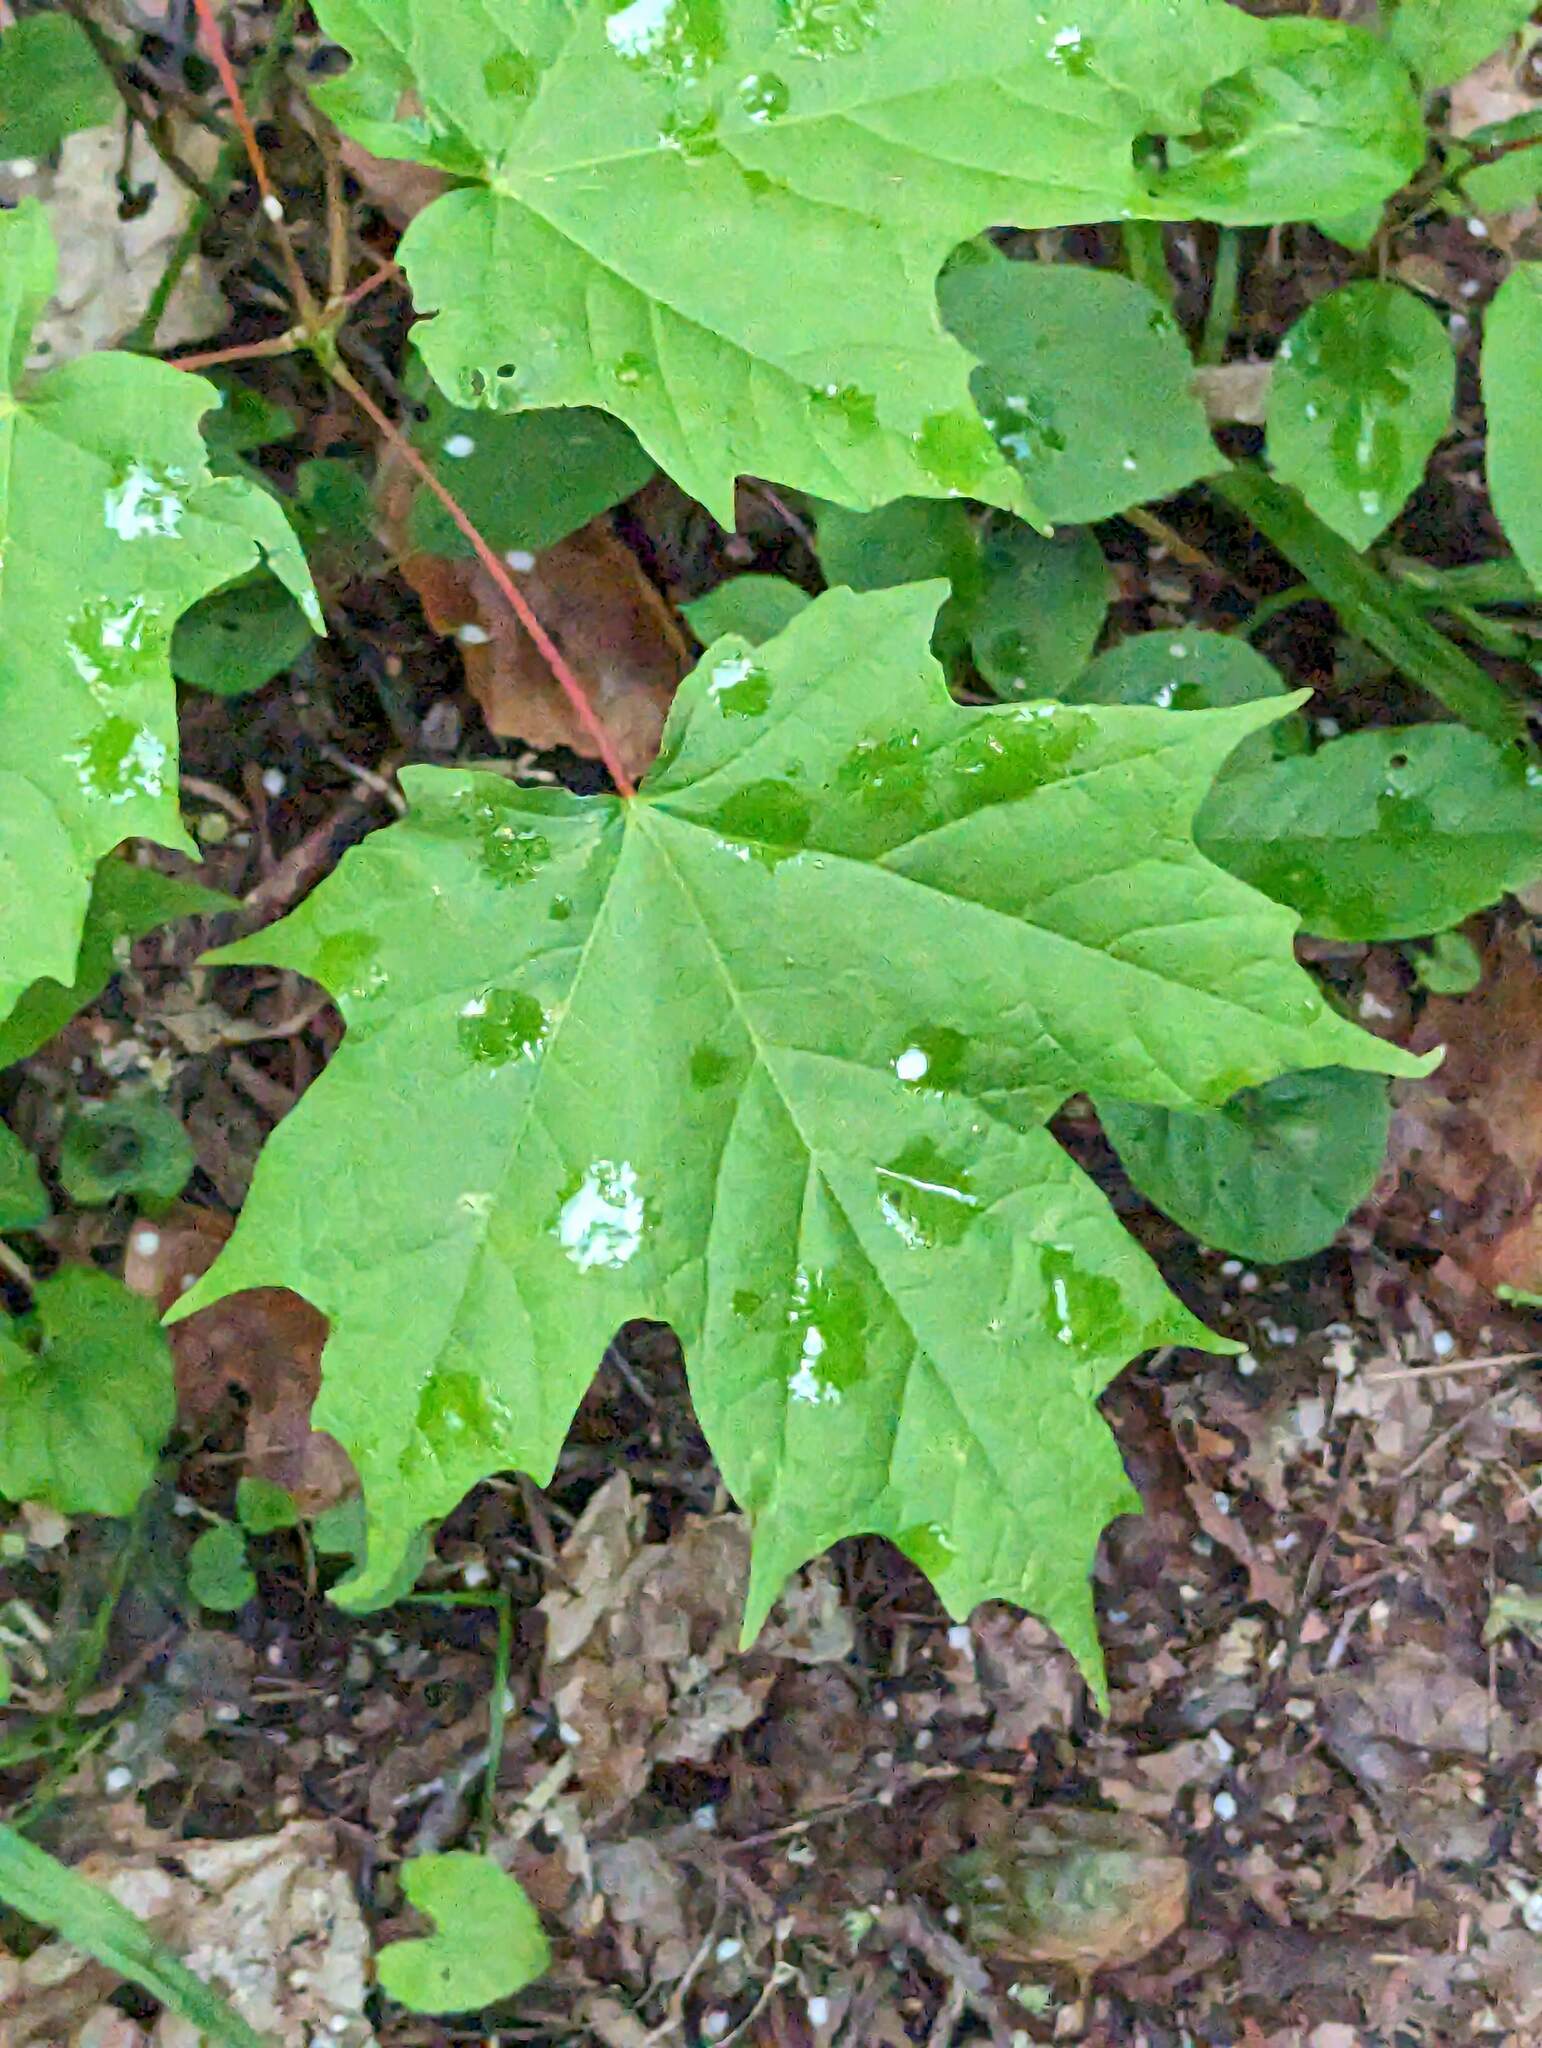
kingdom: Plantae
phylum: Tracheophyta
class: Magnoliopsida
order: Sapindales
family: Sapindaceae
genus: Acer
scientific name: Acer saccharum
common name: Sugar maple
